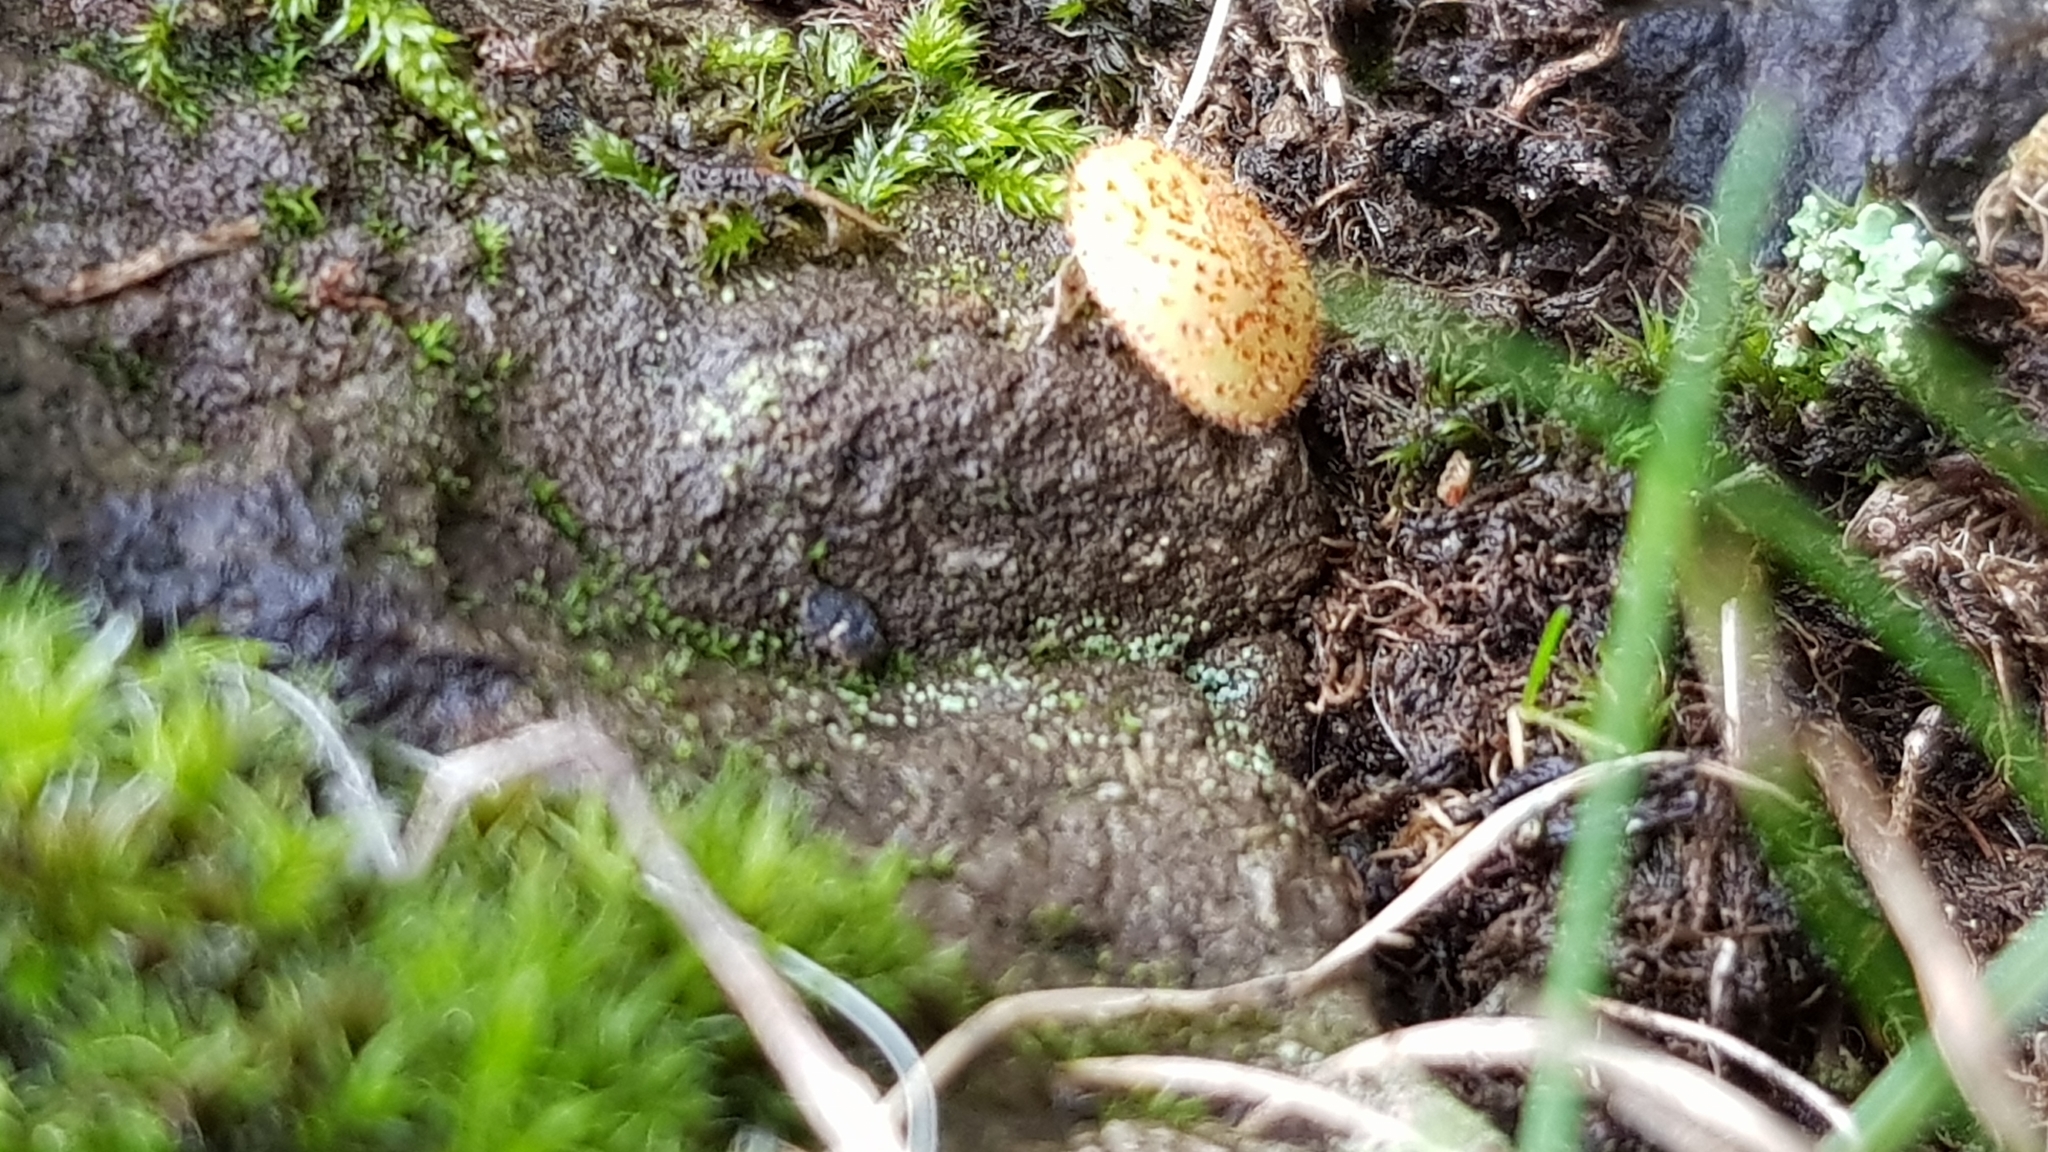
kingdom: Animalia
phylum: Arthropoda
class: Insecta
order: Hymenoptera
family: Cynipidae
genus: Neuroterus
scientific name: Neuroterus quercusbaccarum
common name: Common spangle gall
